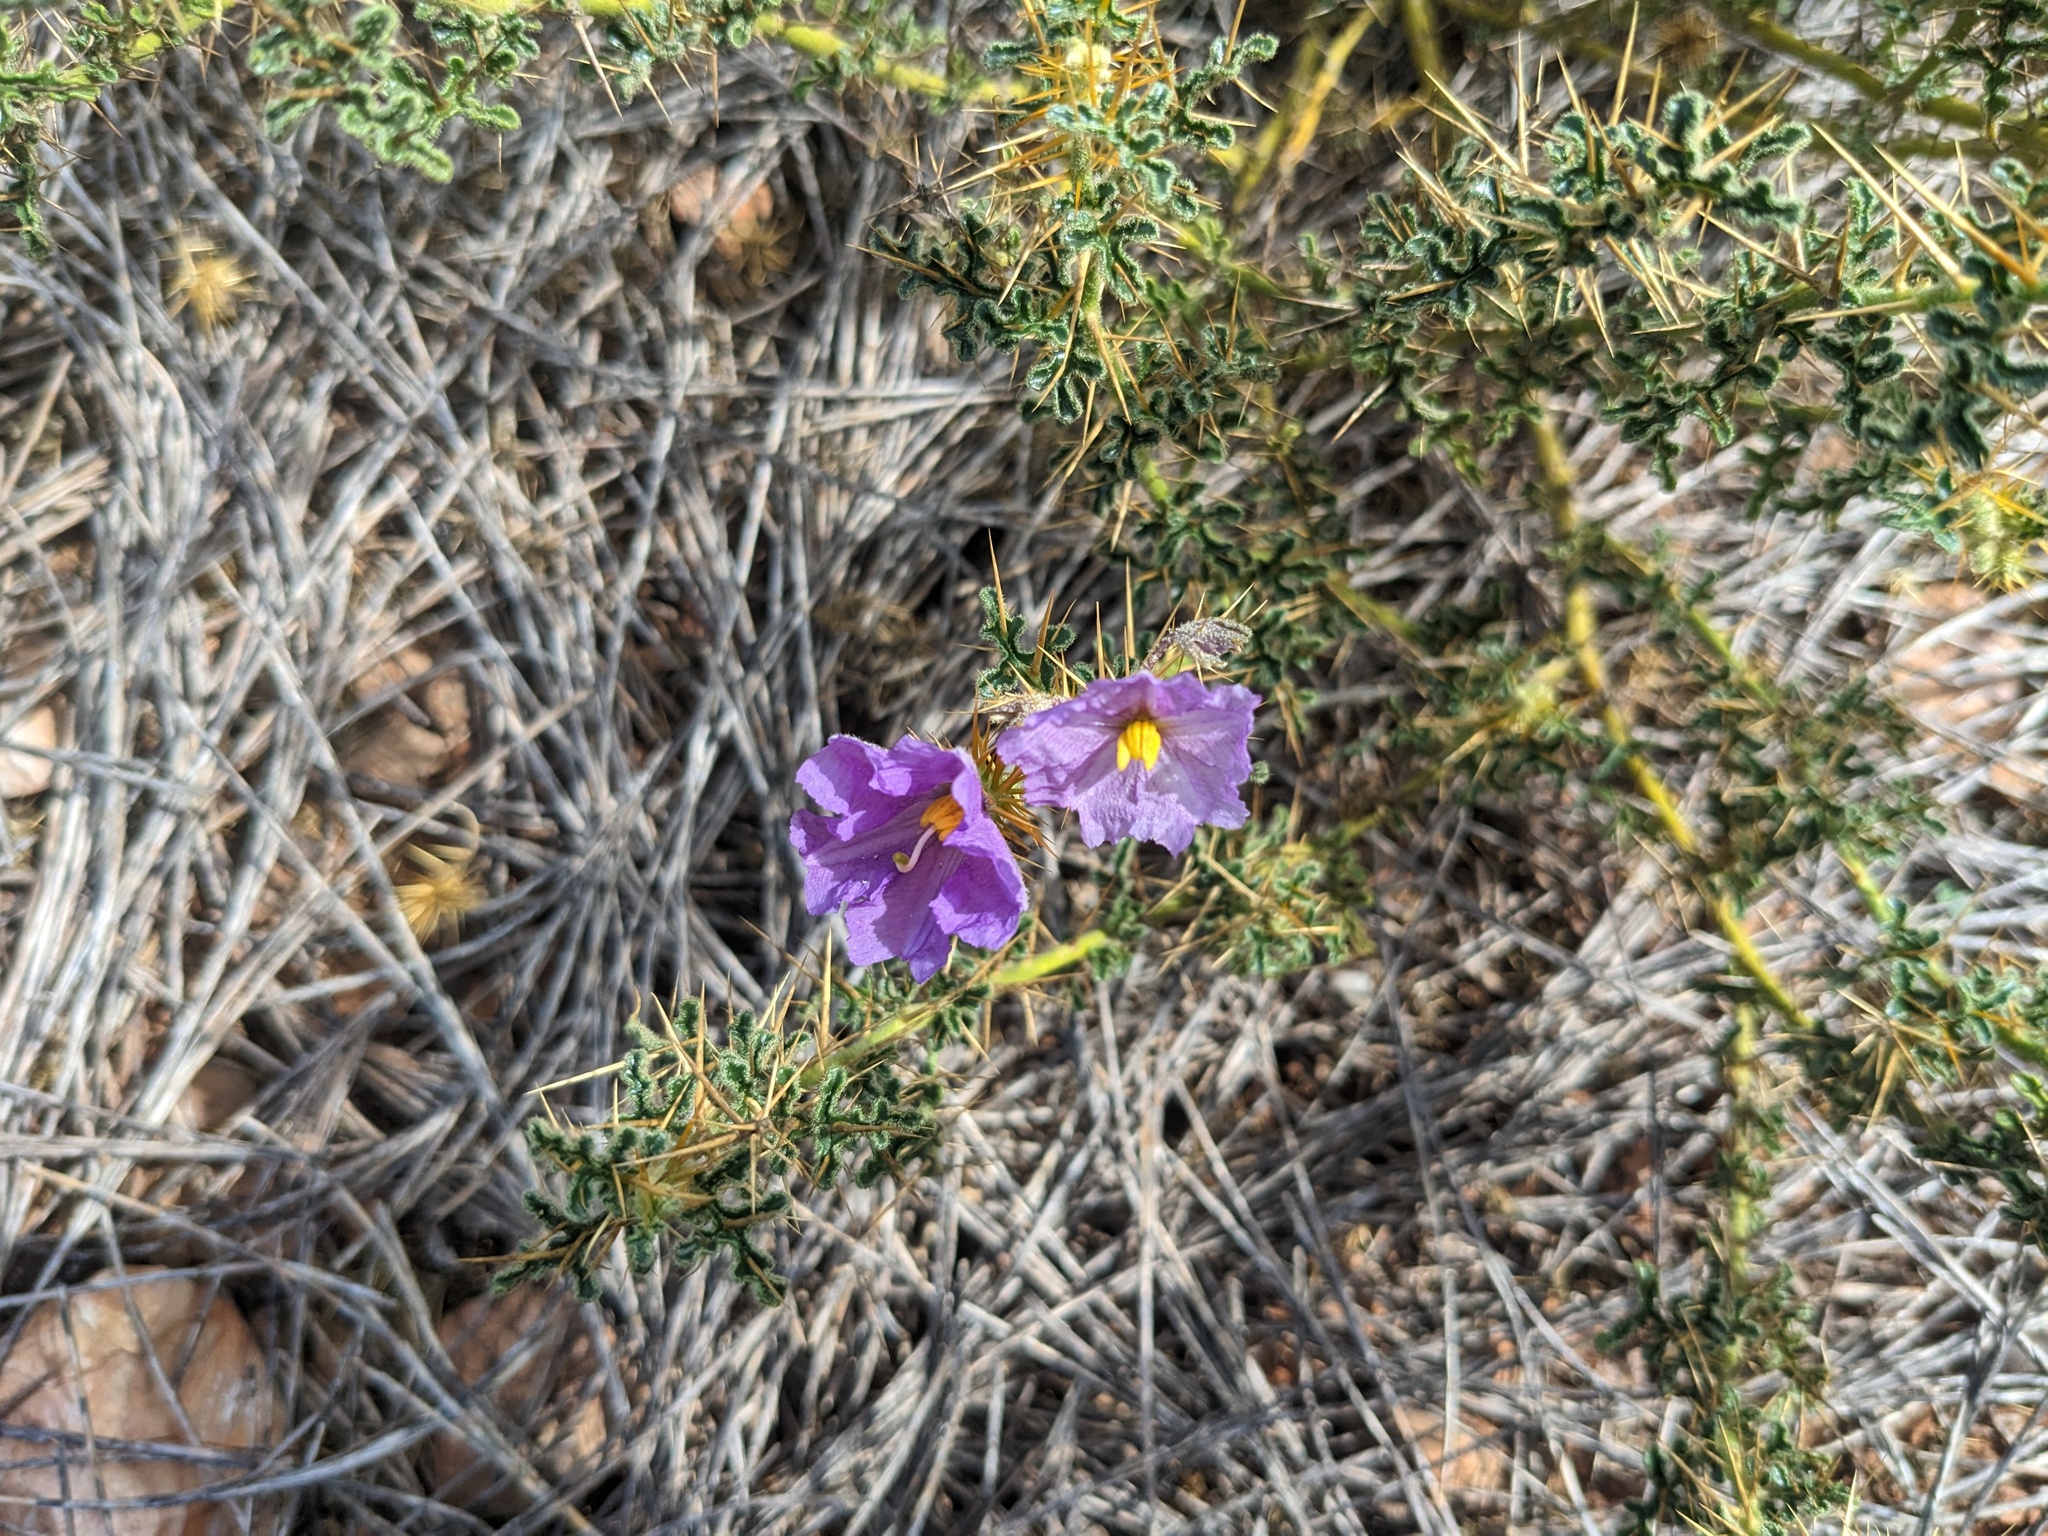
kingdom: Plantae
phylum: Tracheophyta
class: Magnoliopsida
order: Solanales
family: Solanaceae
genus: Solanum
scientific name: Solanum diversiflorum
